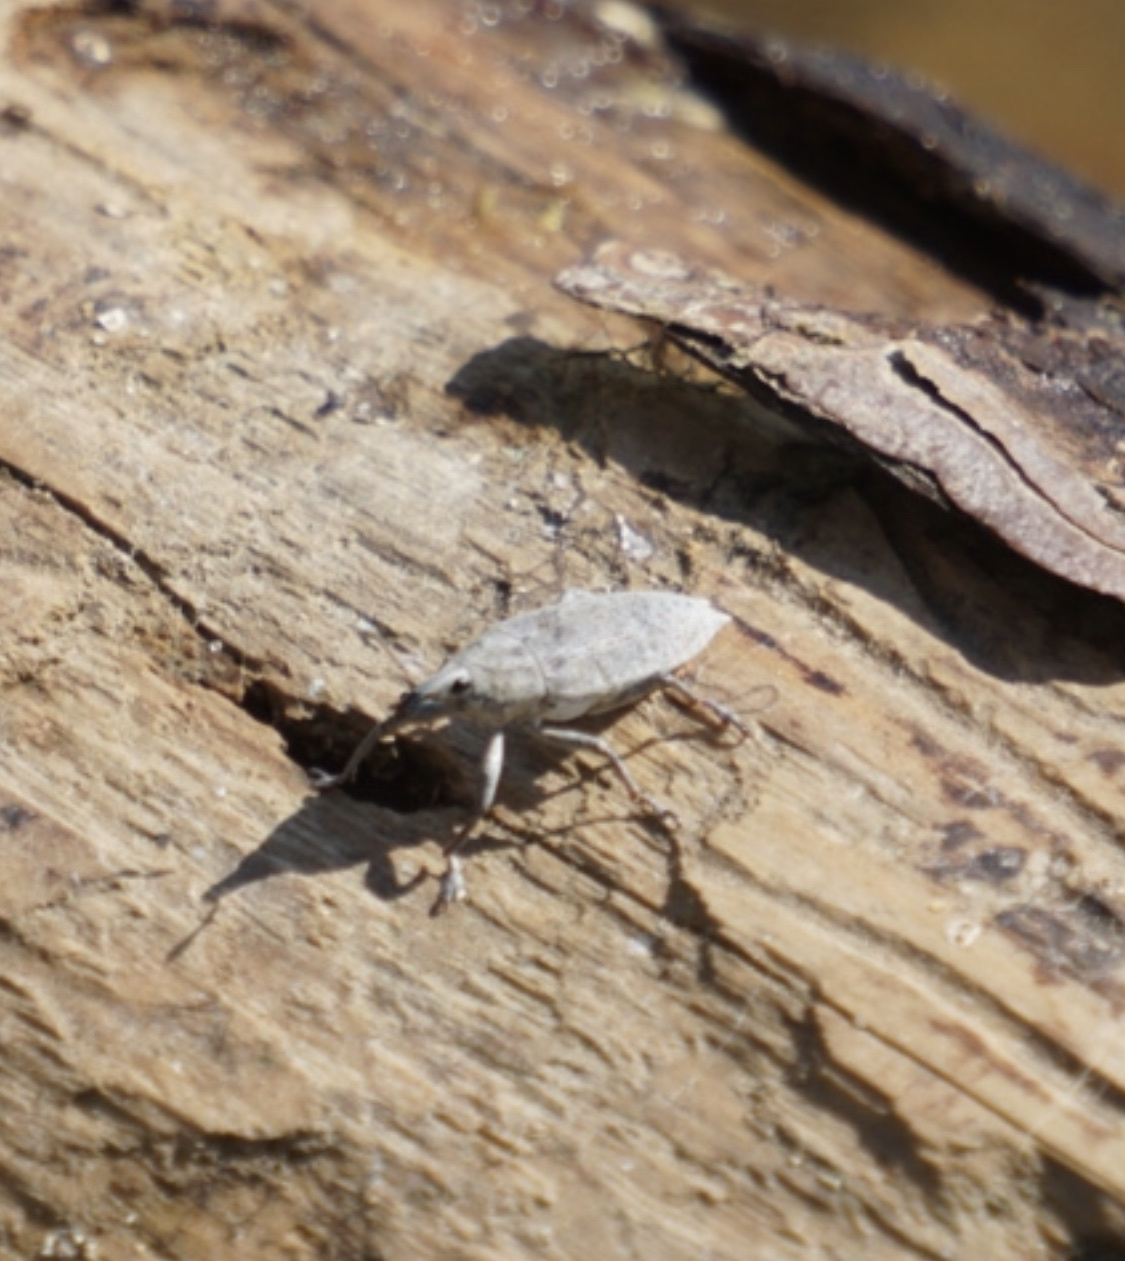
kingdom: Animalia
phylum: Arthropoda
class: Insecta
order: Coleoptera
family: Curculionidae
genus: Lixus
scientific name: Lixus caudifer
